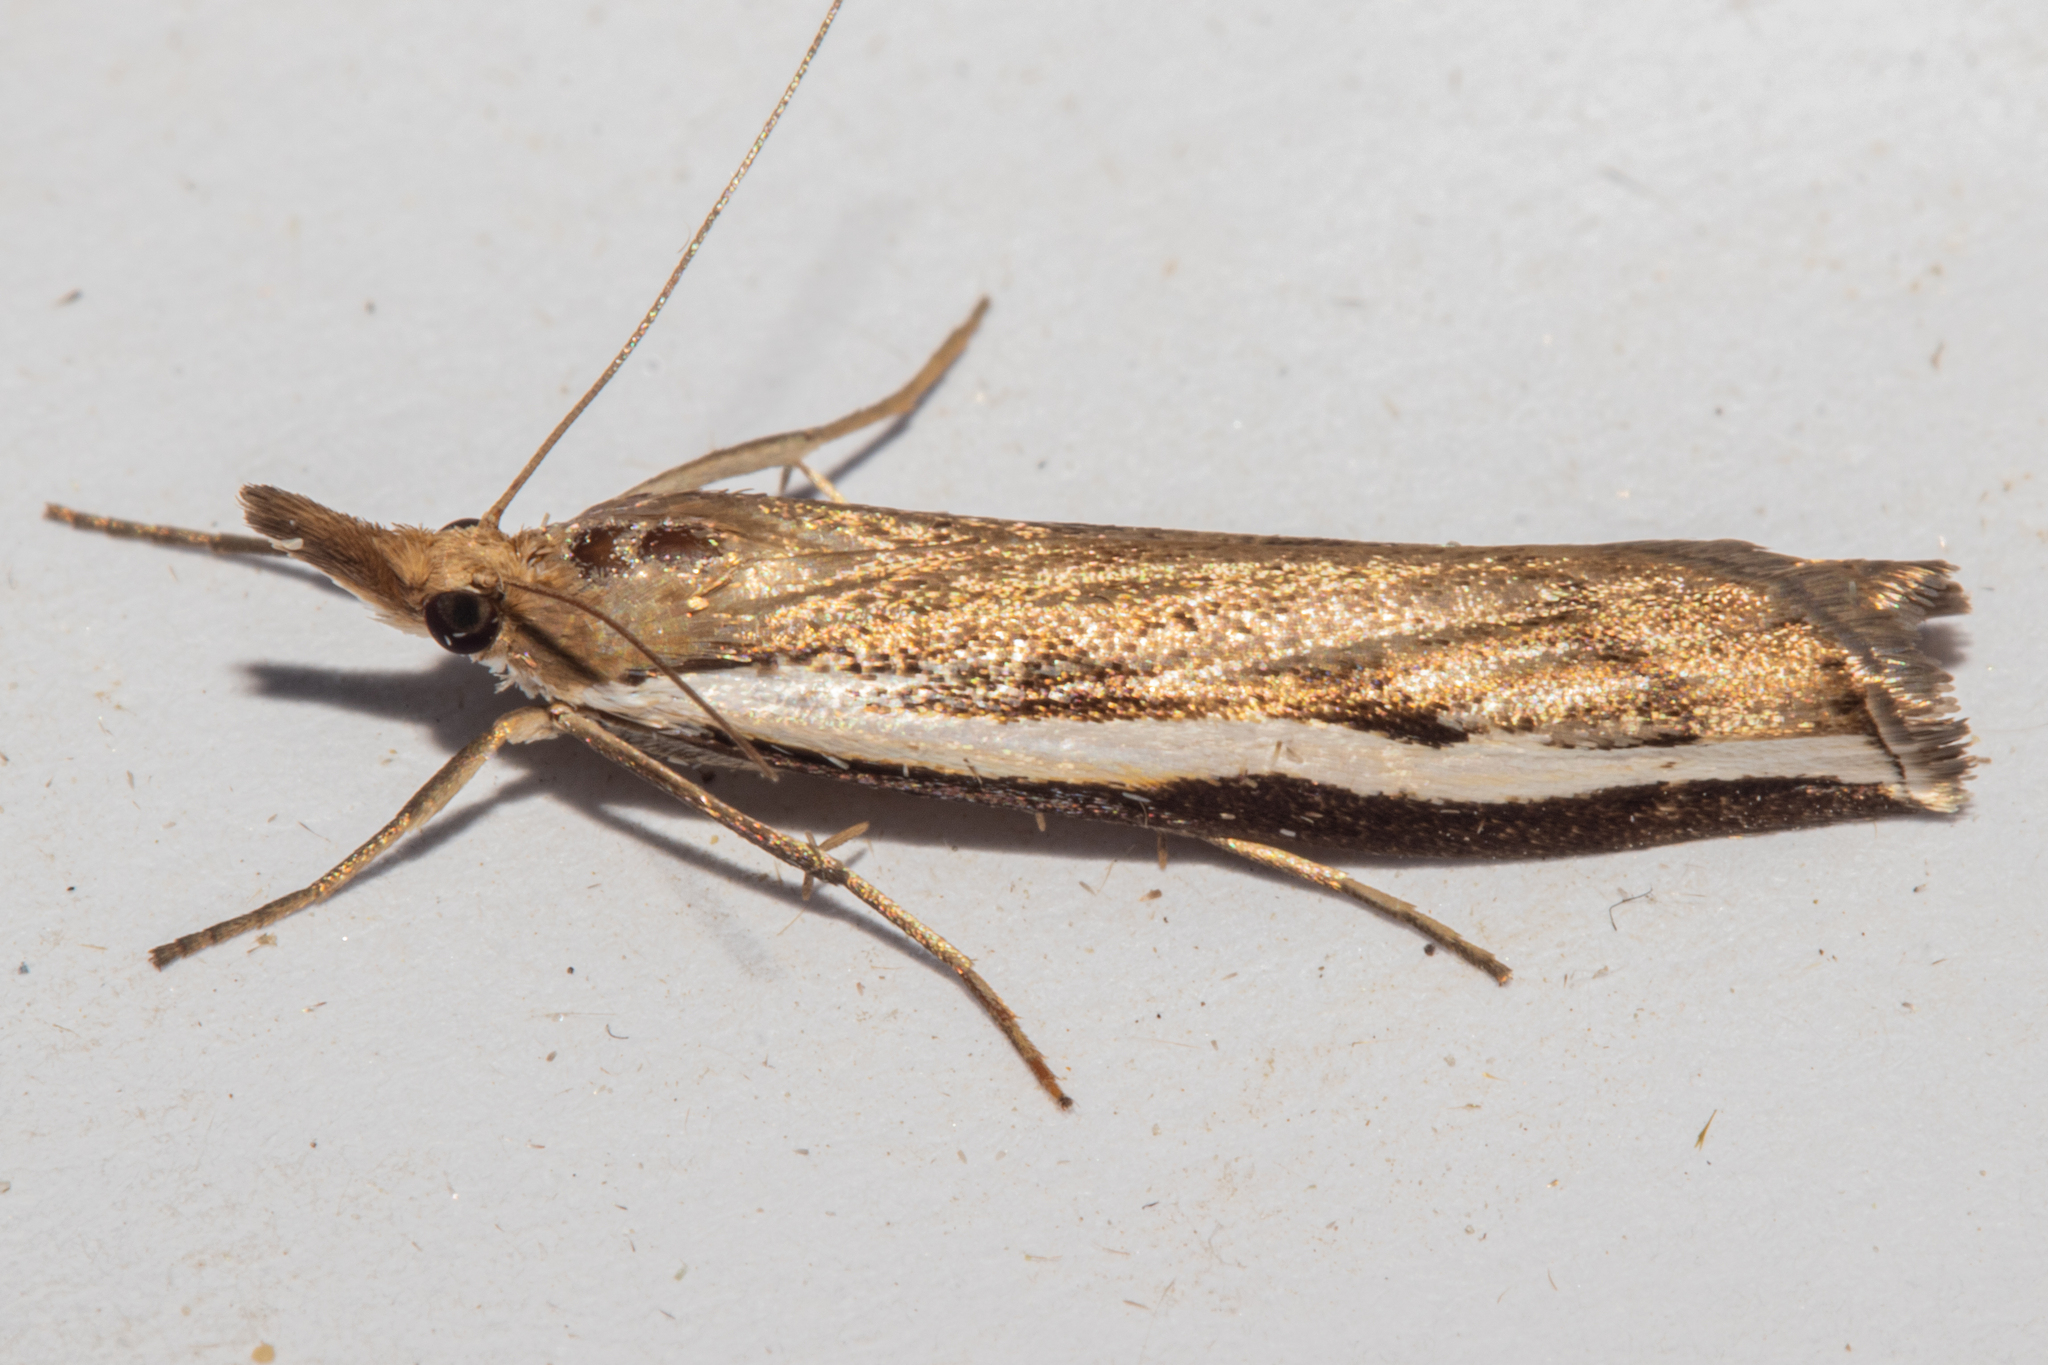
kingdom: Animalia
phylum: Arthropoda
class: Insecta
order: Lepidoptera
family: Crambidae
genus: Orocrambus
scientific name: Orocrambus flexuosellus
